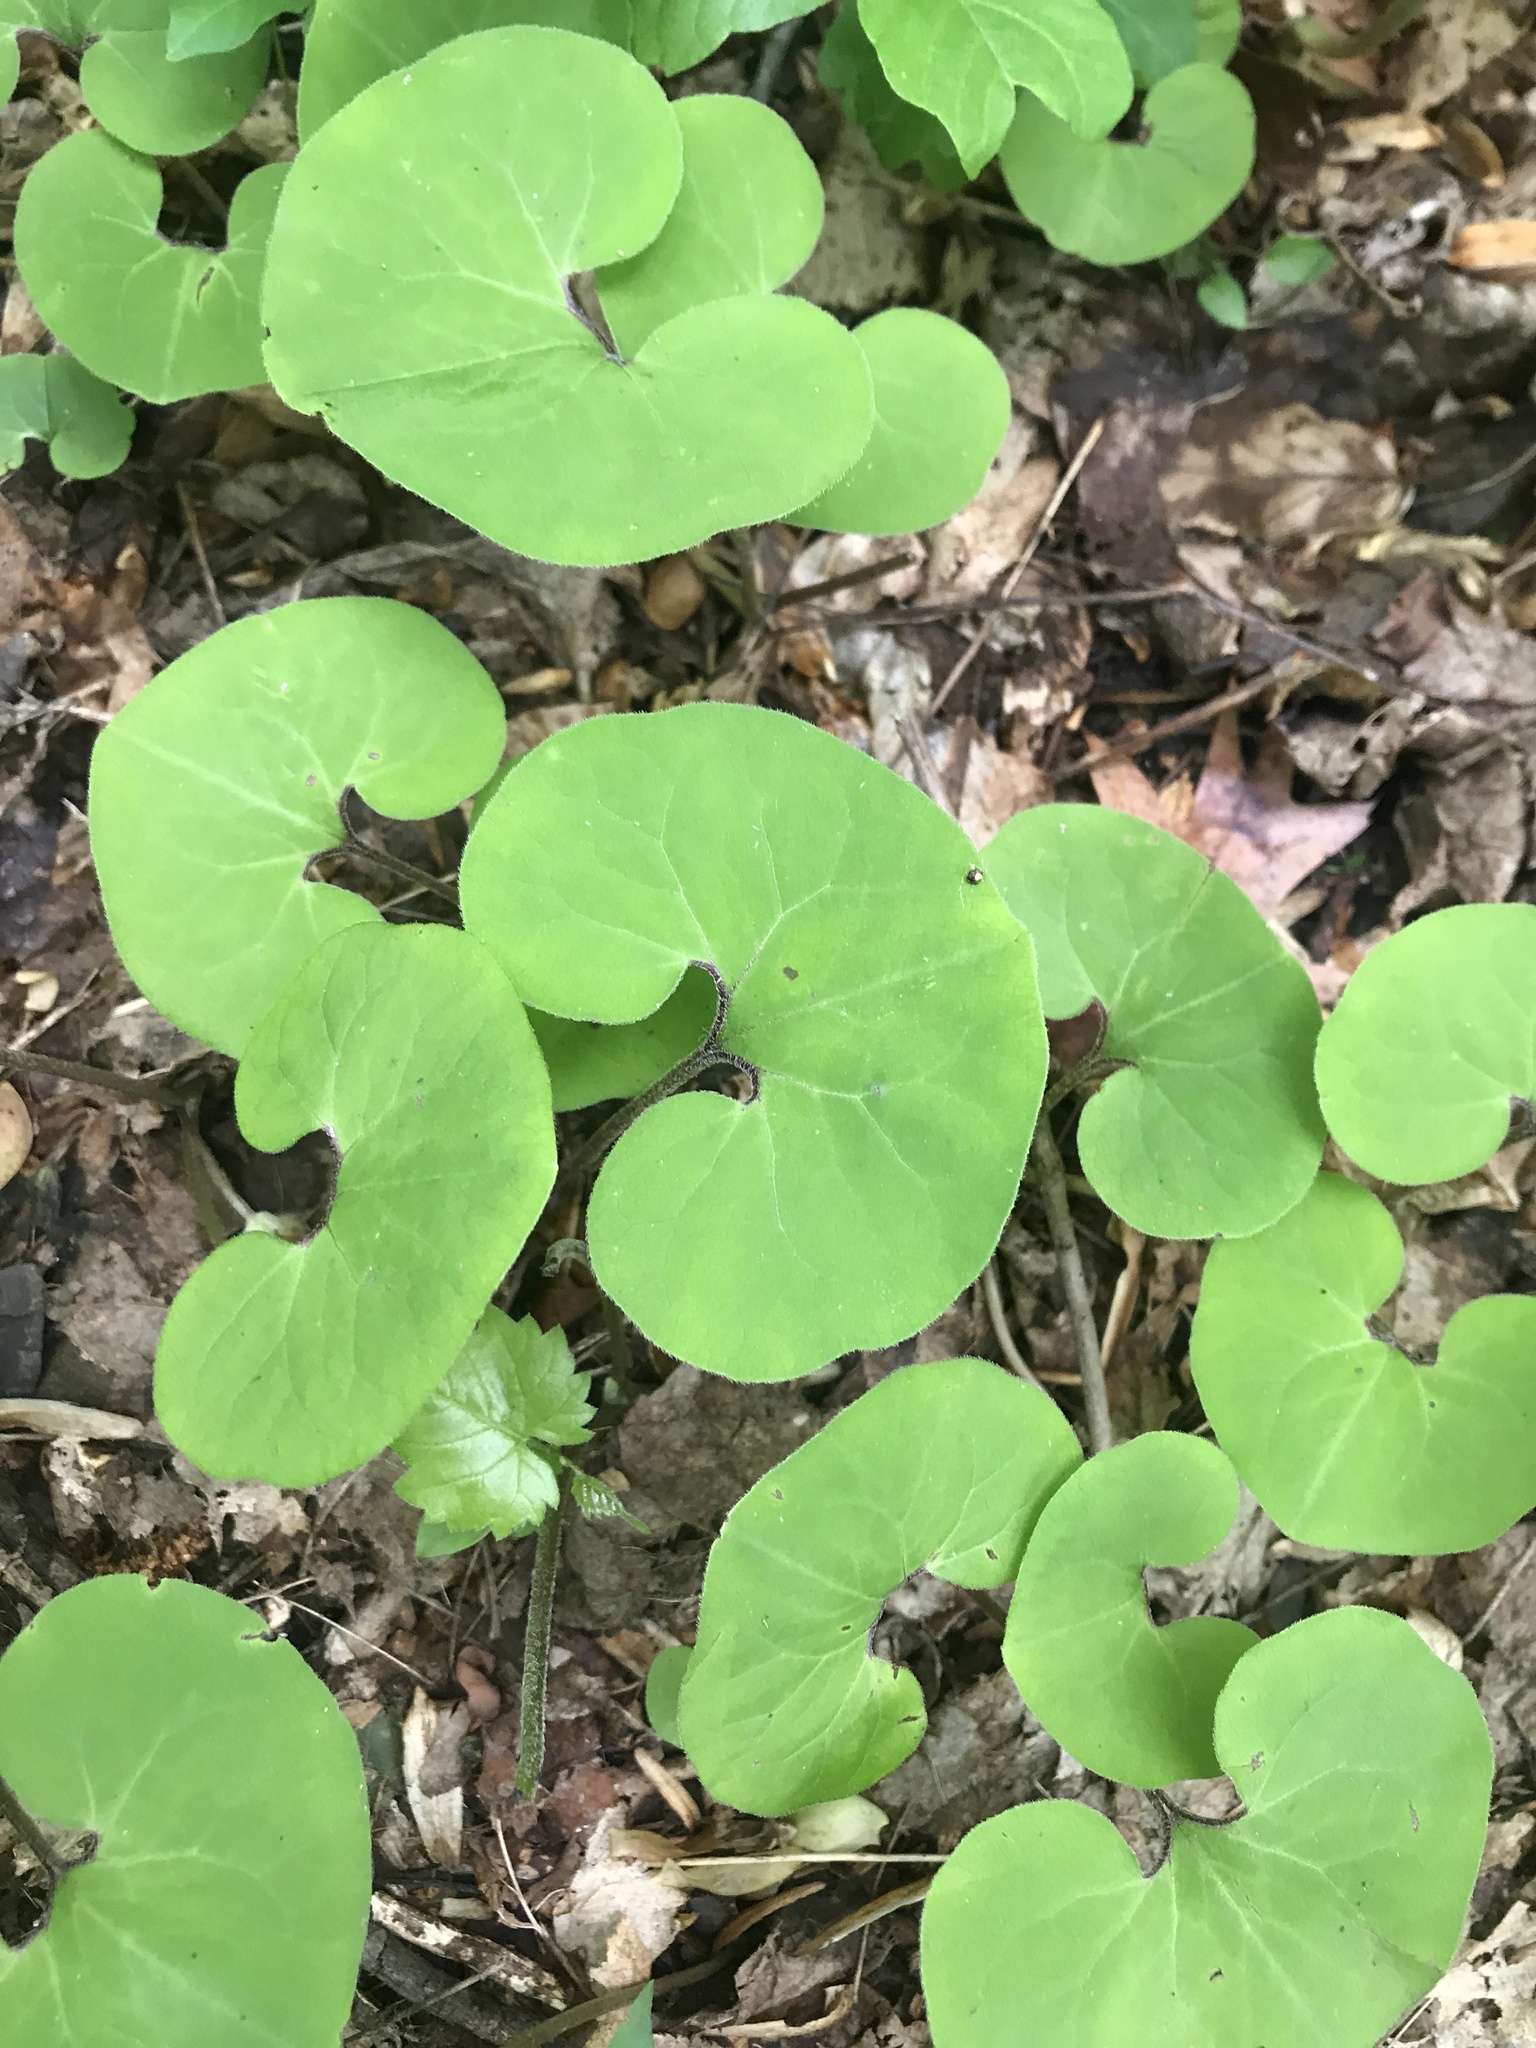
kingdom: Plantae
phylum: Tracheophyta
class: Magnoliopsida
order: Piperales
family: Aristolochiaceae
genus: Asarum
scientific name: Asarum canadense
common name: Wild ginger
